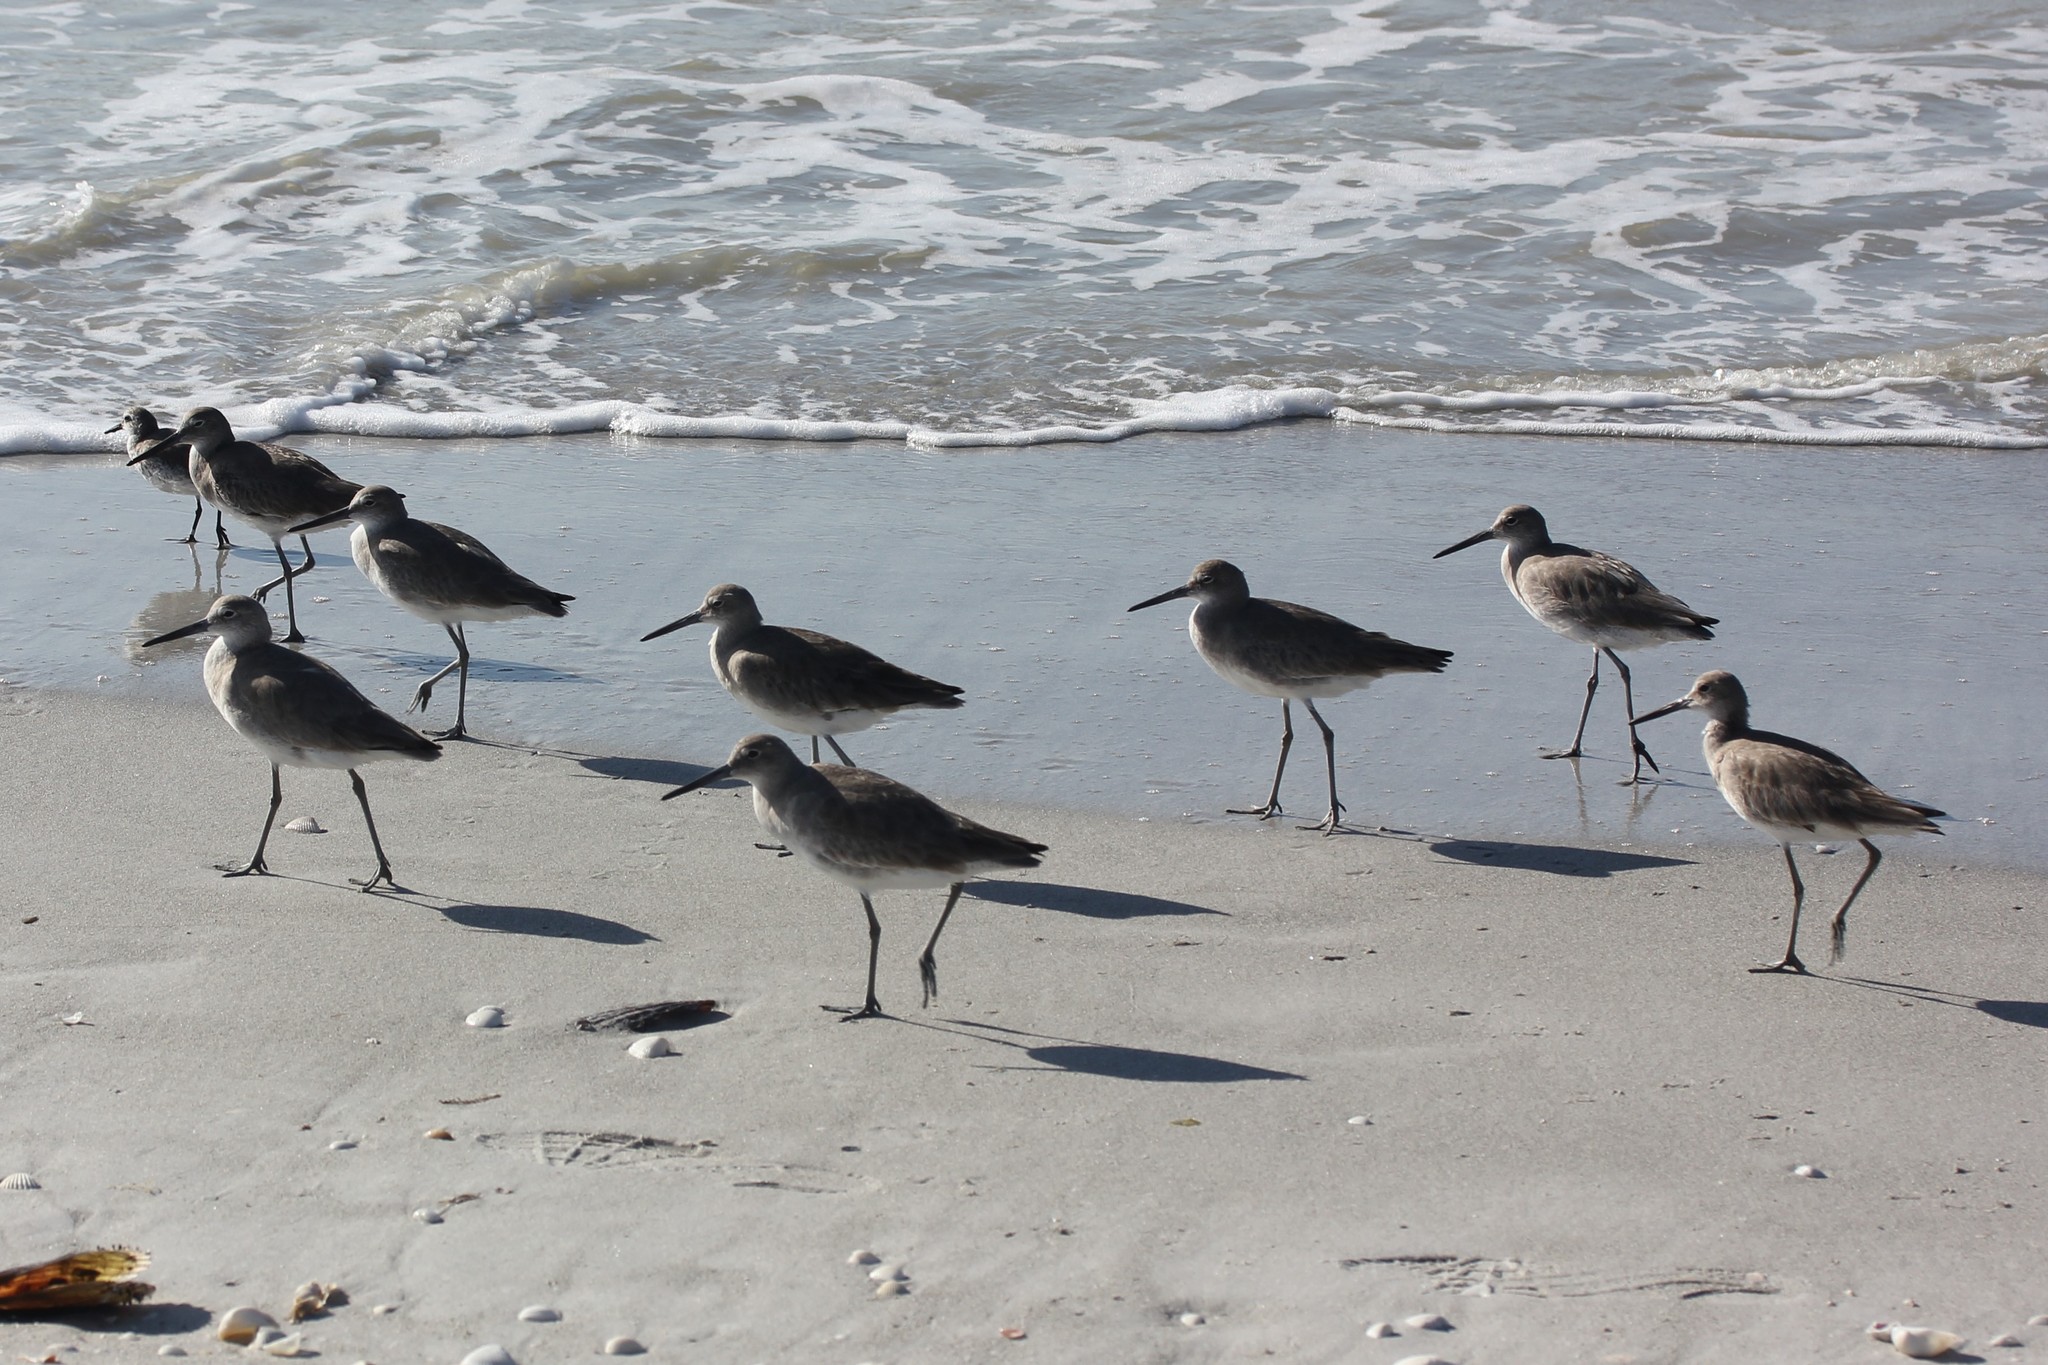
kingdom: Animalia
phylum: Chordata
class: Aves
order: Charadriiformes
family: Scolopacidae
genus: Tringa
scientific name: Tringa semipalmata
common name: Willet
